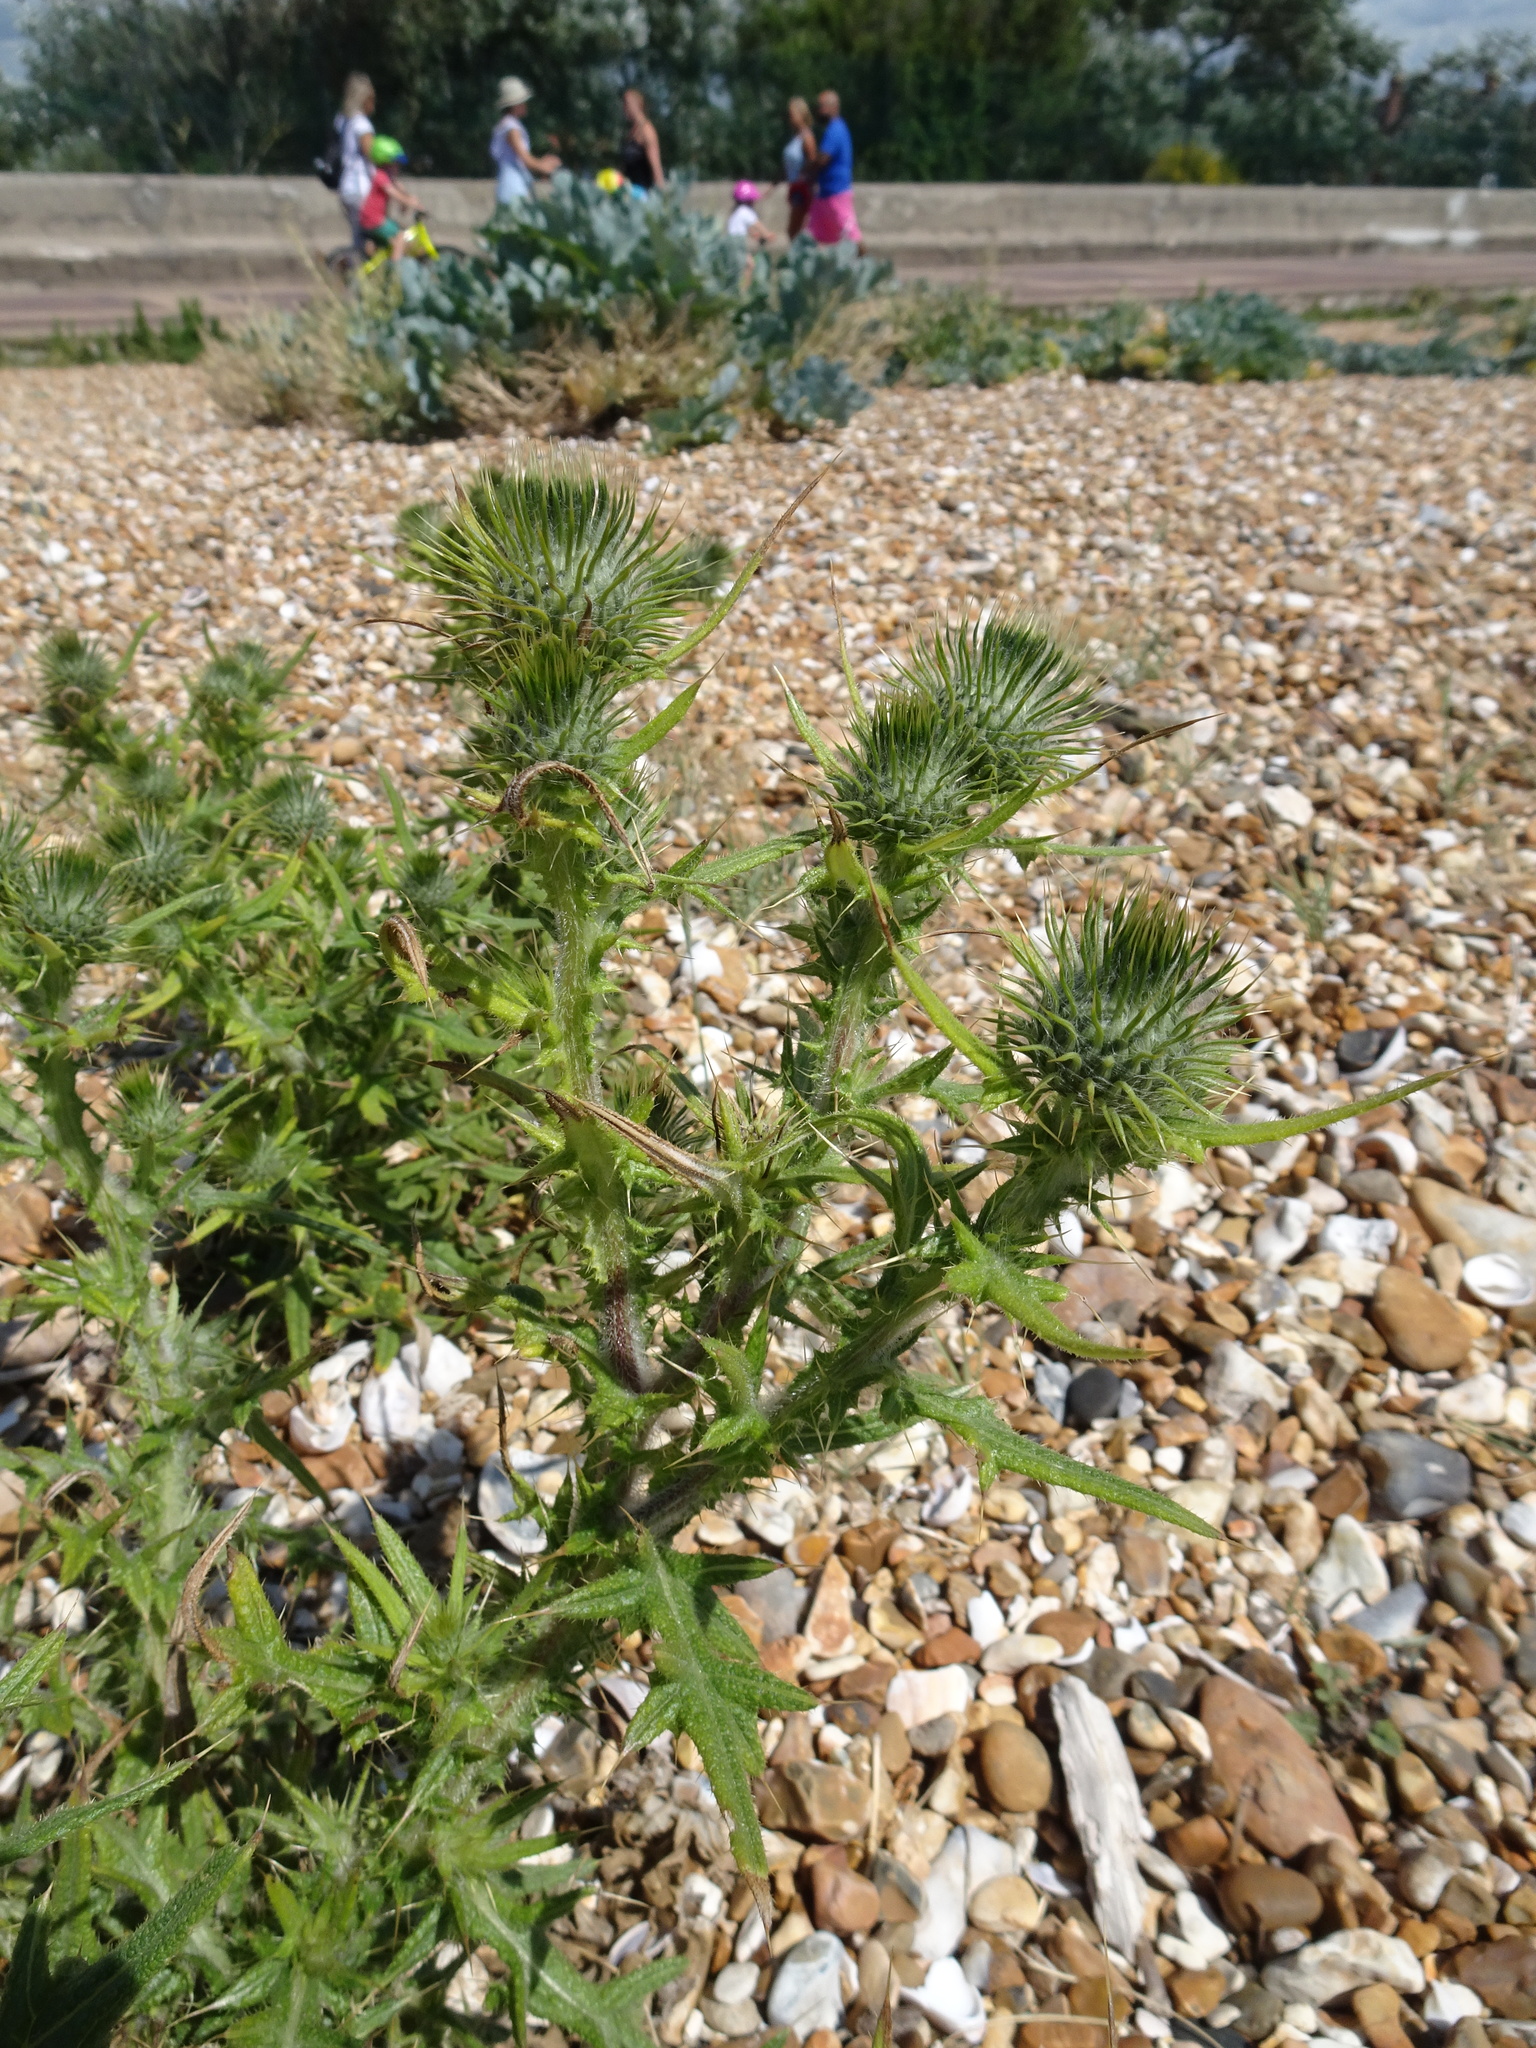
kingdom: Plantae
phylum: Tracheophyta
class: Magnoliopsida
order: Asterales
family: Asteraceae
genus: Cirsium
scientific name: Cirsium vulgare
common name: Bull thistle
